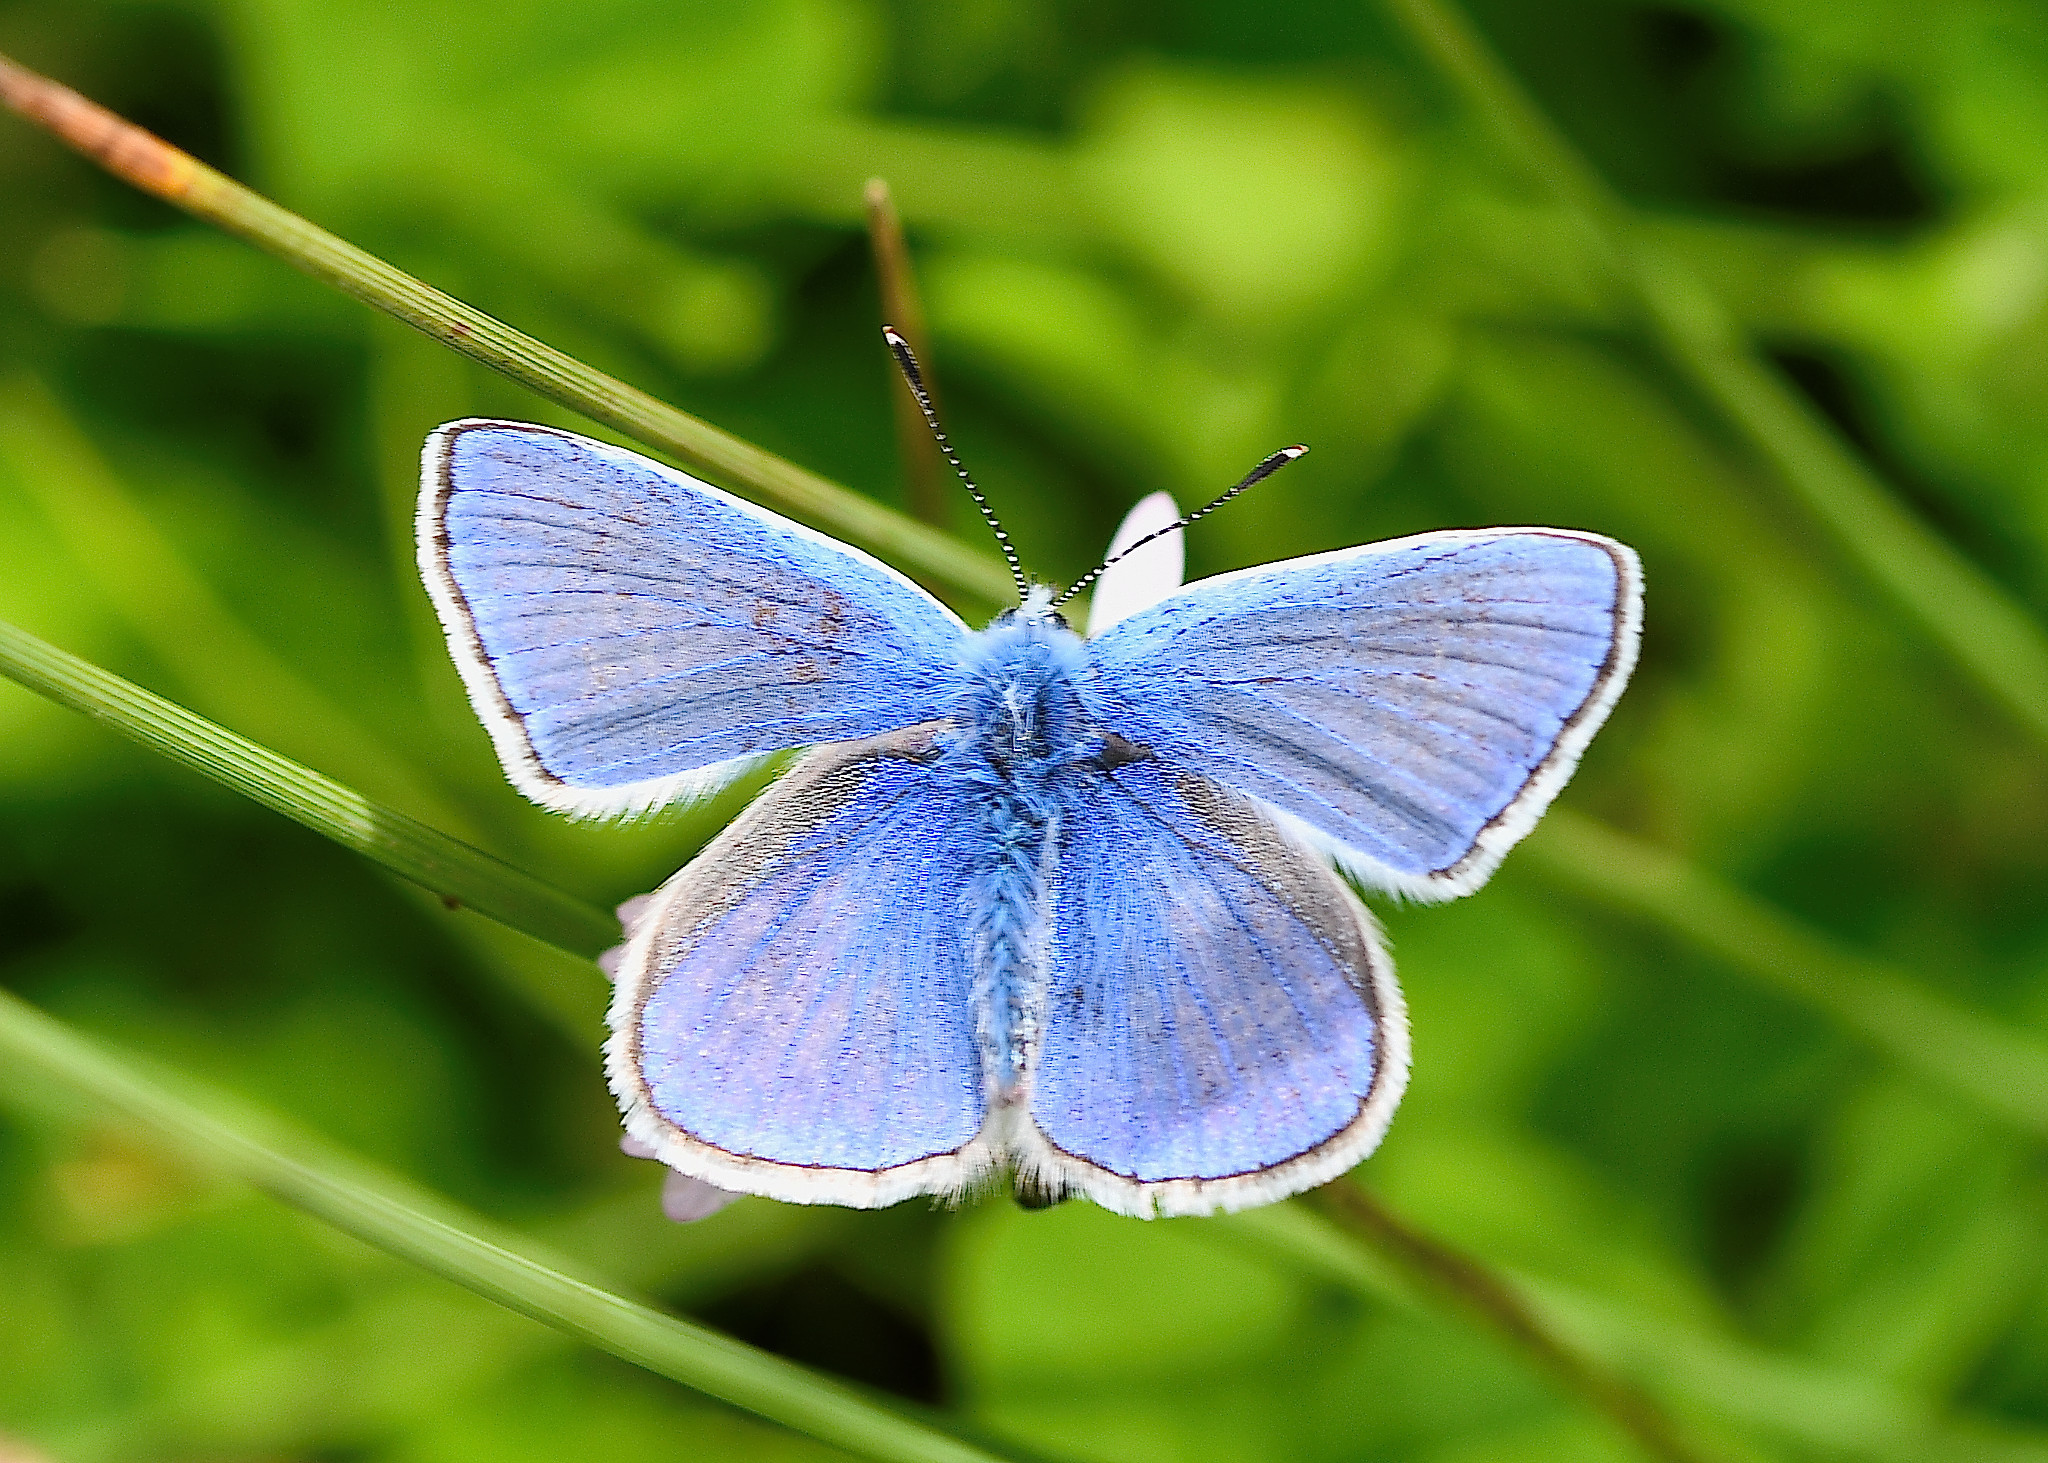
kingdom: Animalia
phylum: Arthropoda
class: Insecta
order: Lepidoptera
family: Lycaenidae
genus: Polyommatus
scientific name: Polyommatus icarus
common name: Common blue
